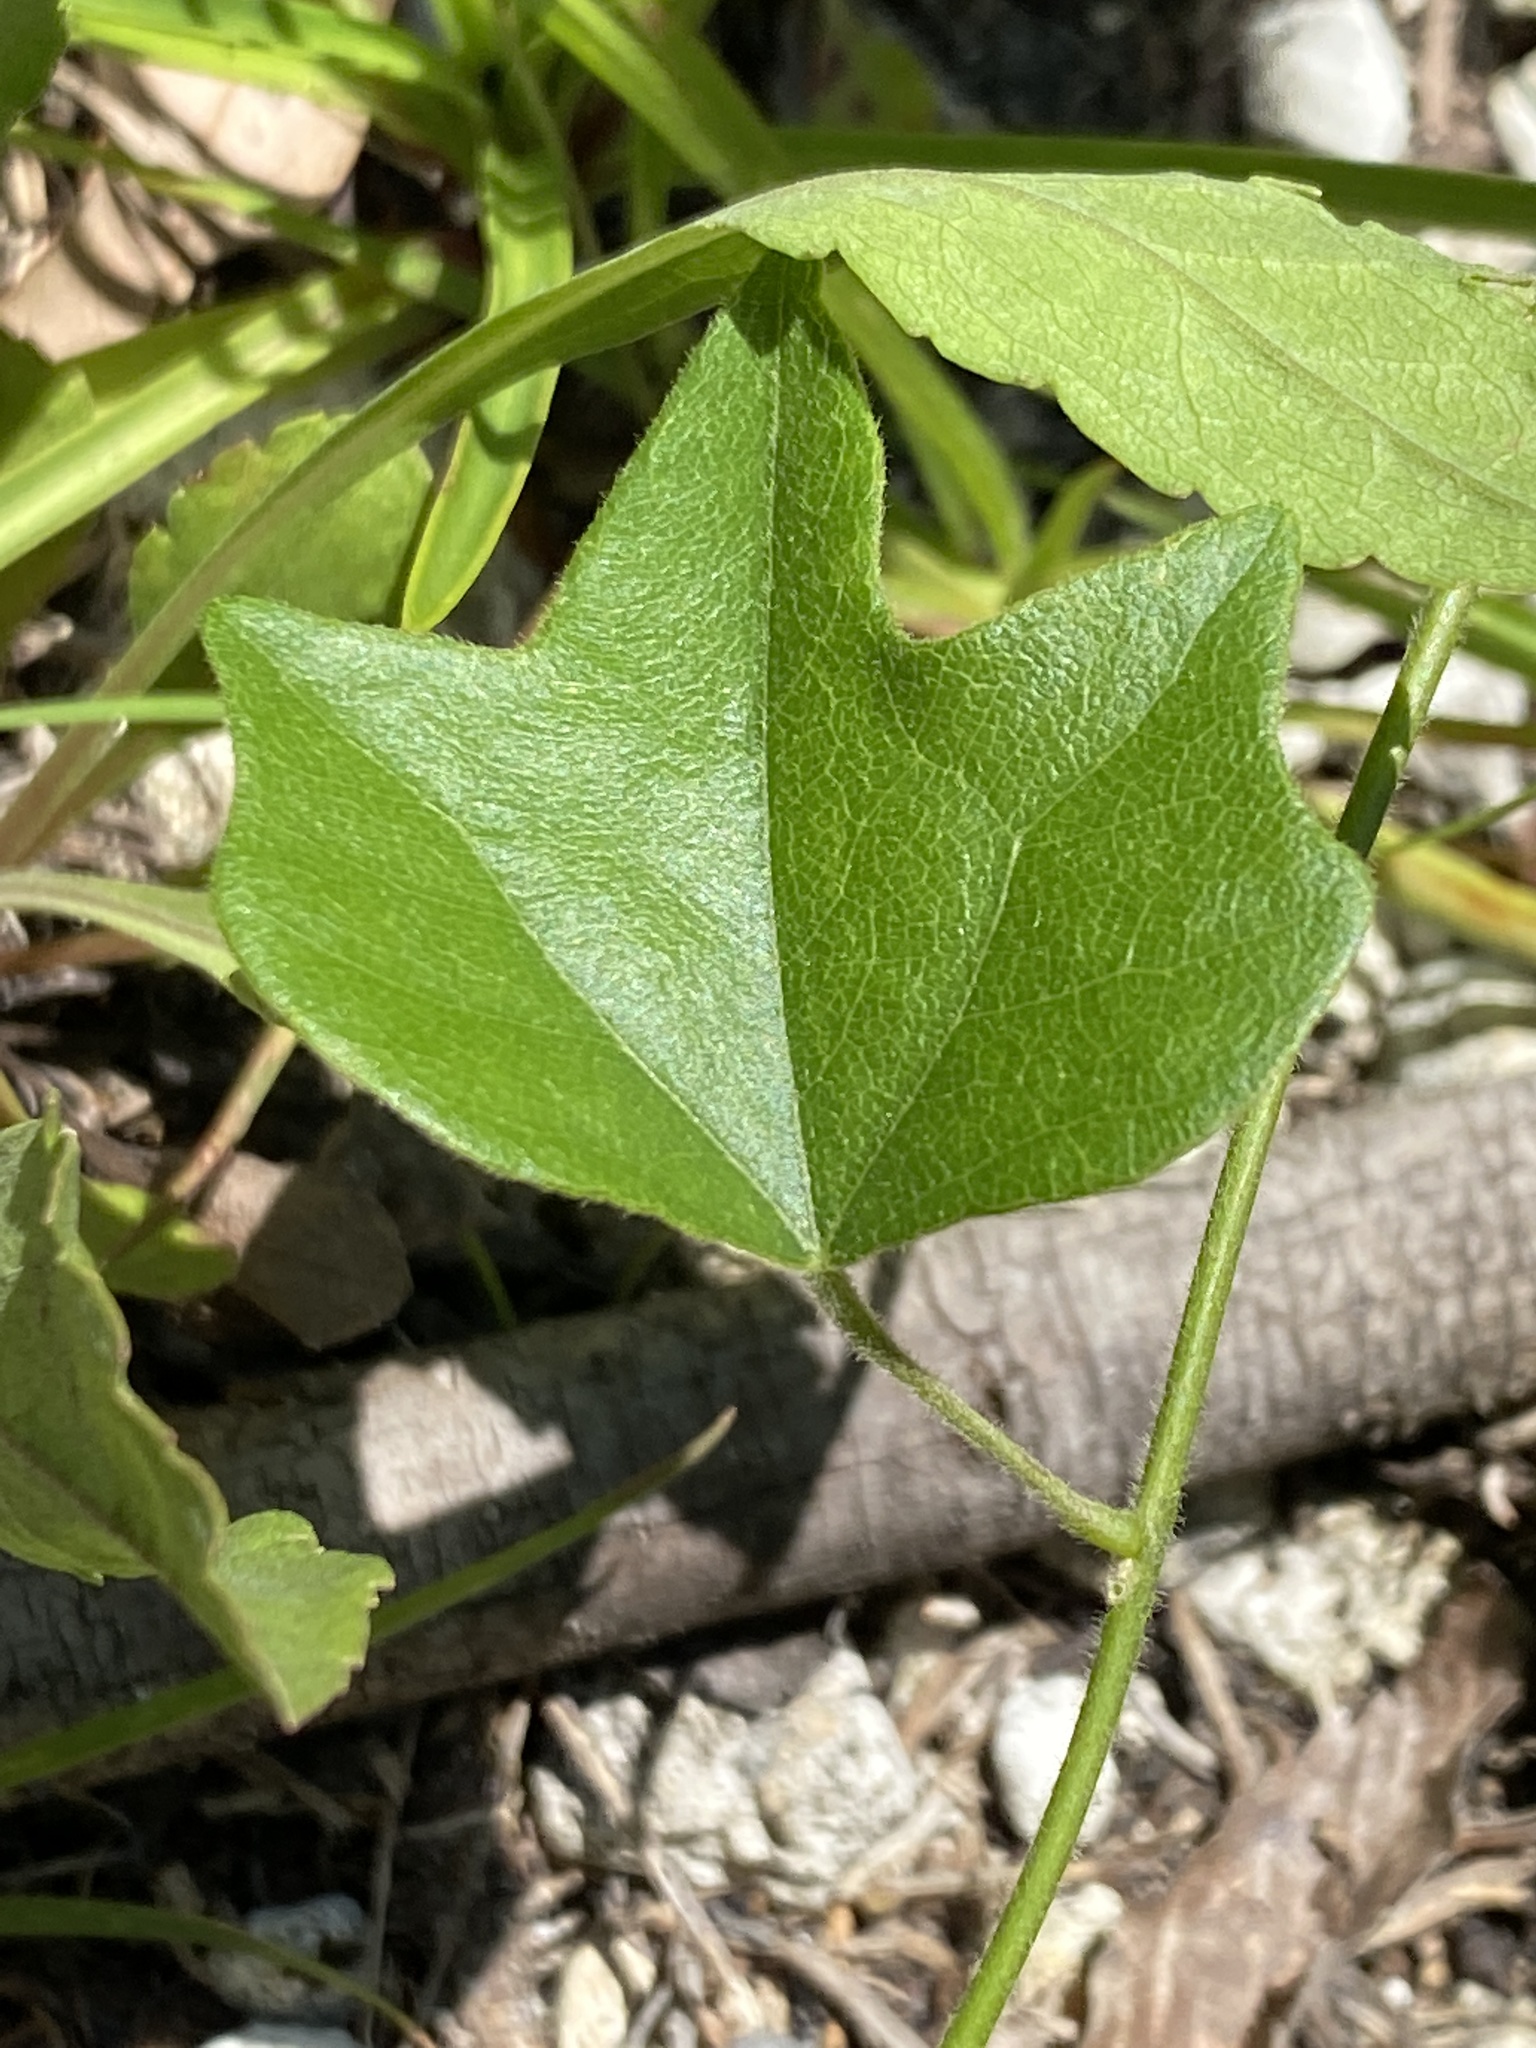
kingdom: Plantae
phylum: Tracheophyta
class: Magnoliopsida
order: Ranunculales
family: Menispermaceae
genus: Cocculus
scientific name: Cocculus carolinus
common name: Carolina moonseed
